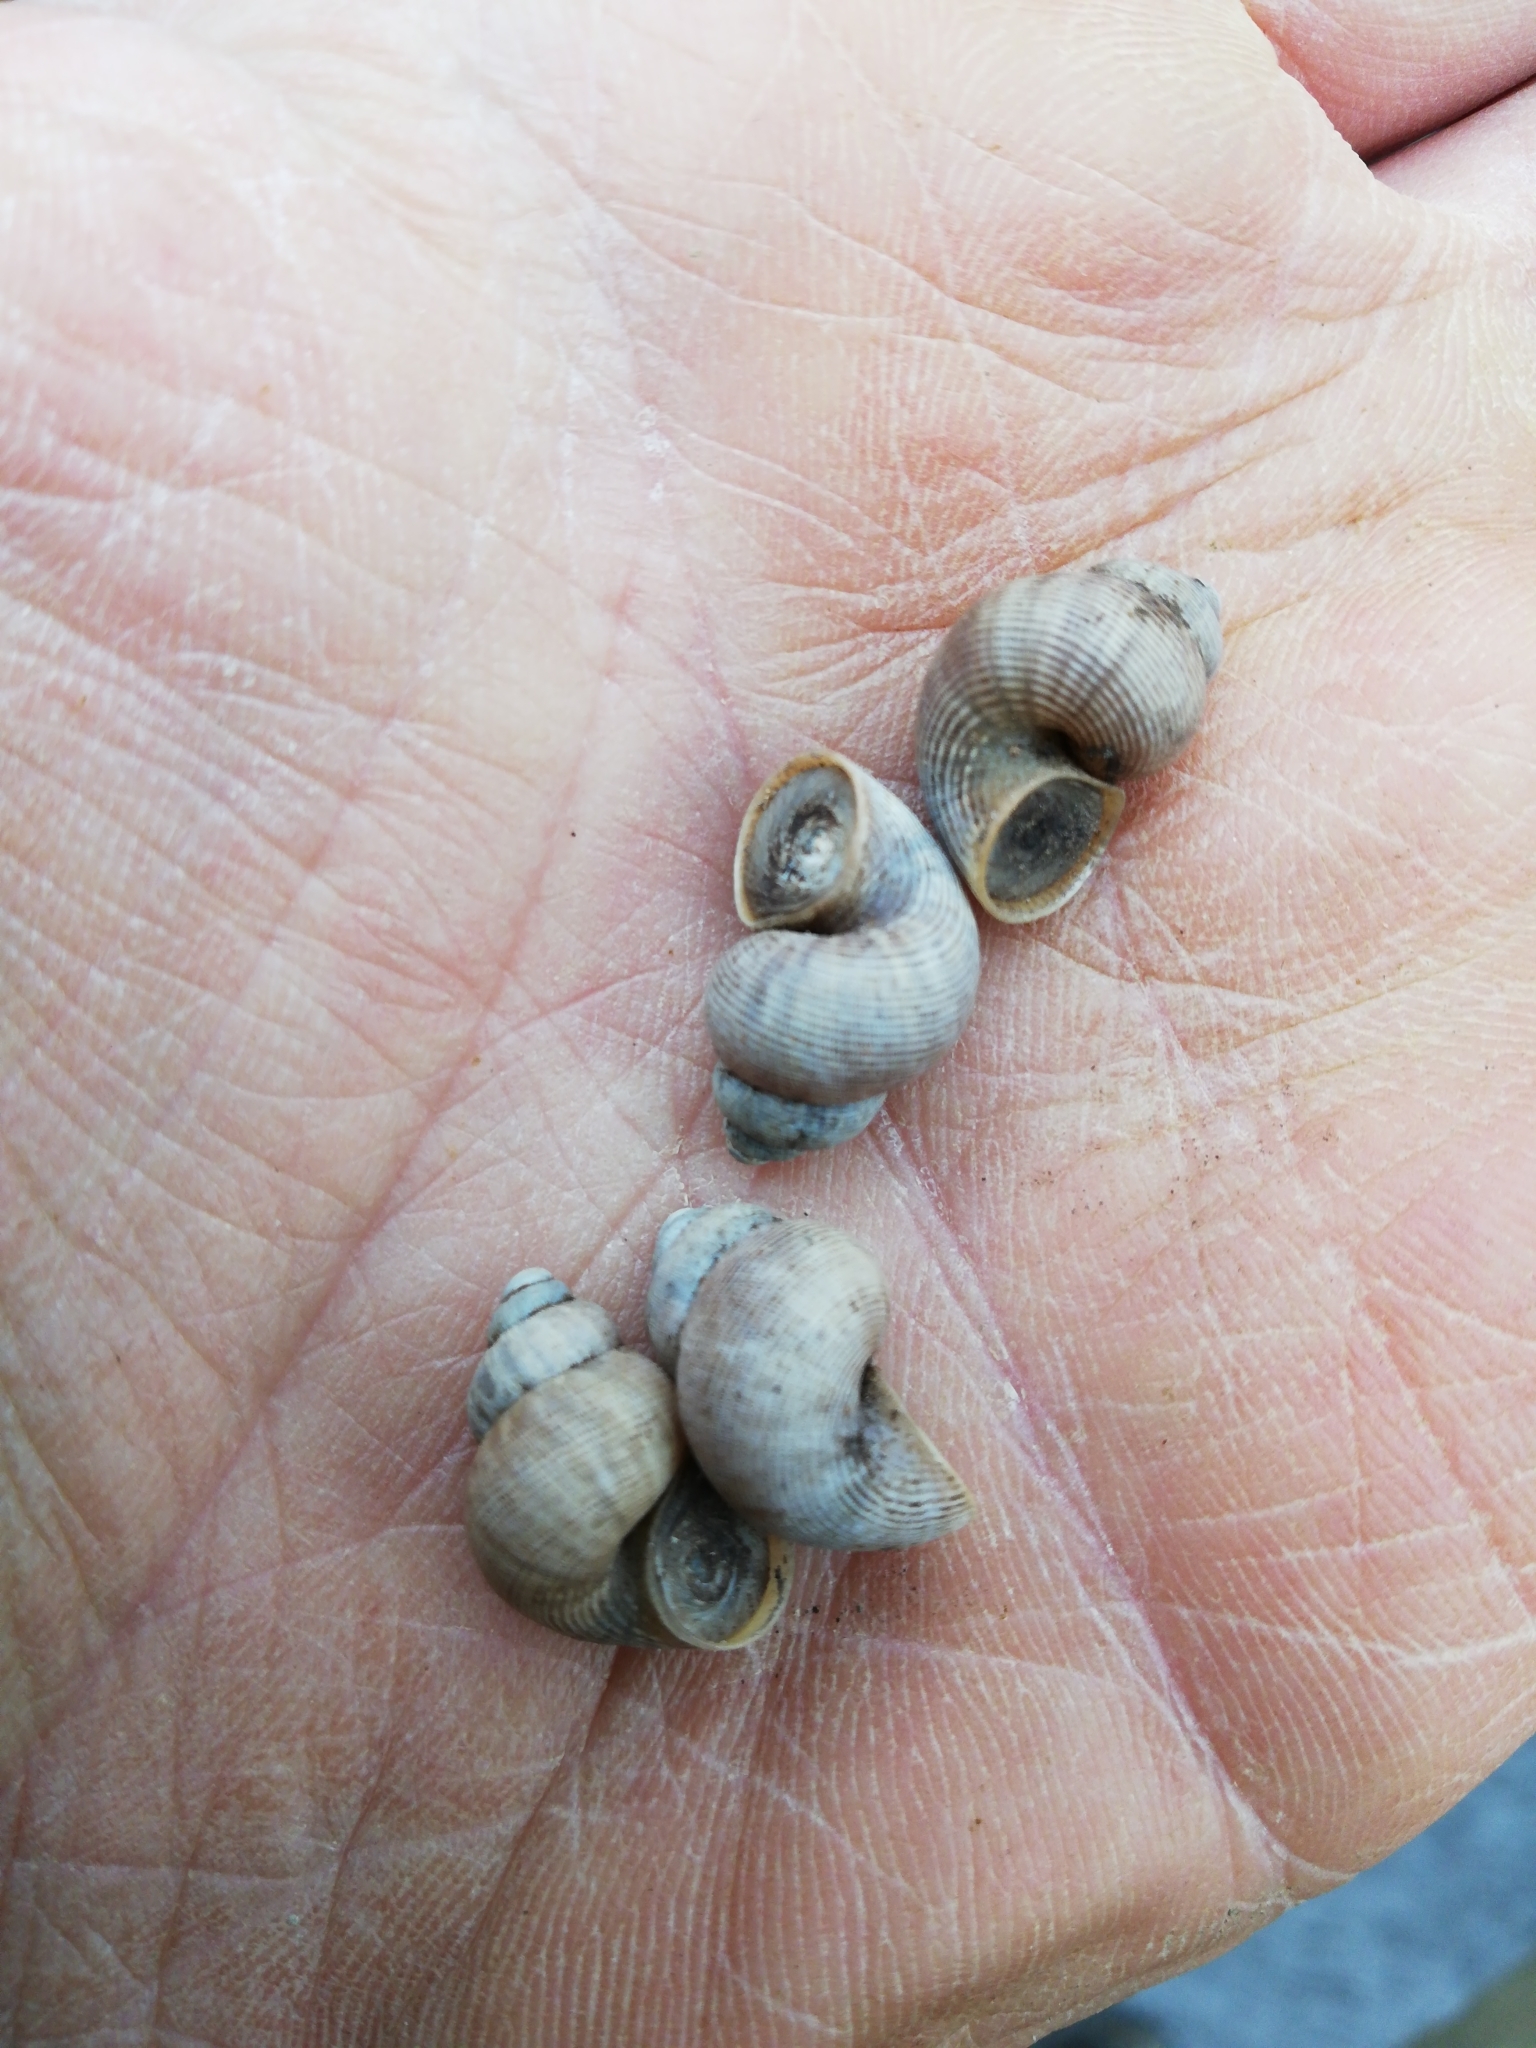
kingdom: Animalia
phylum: Mollusca
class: Gastropoda
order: Littorinimorpha
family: Pomatiidae
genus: Pomatias
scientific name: Pomatias elegans
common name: Red-mouthed snail
